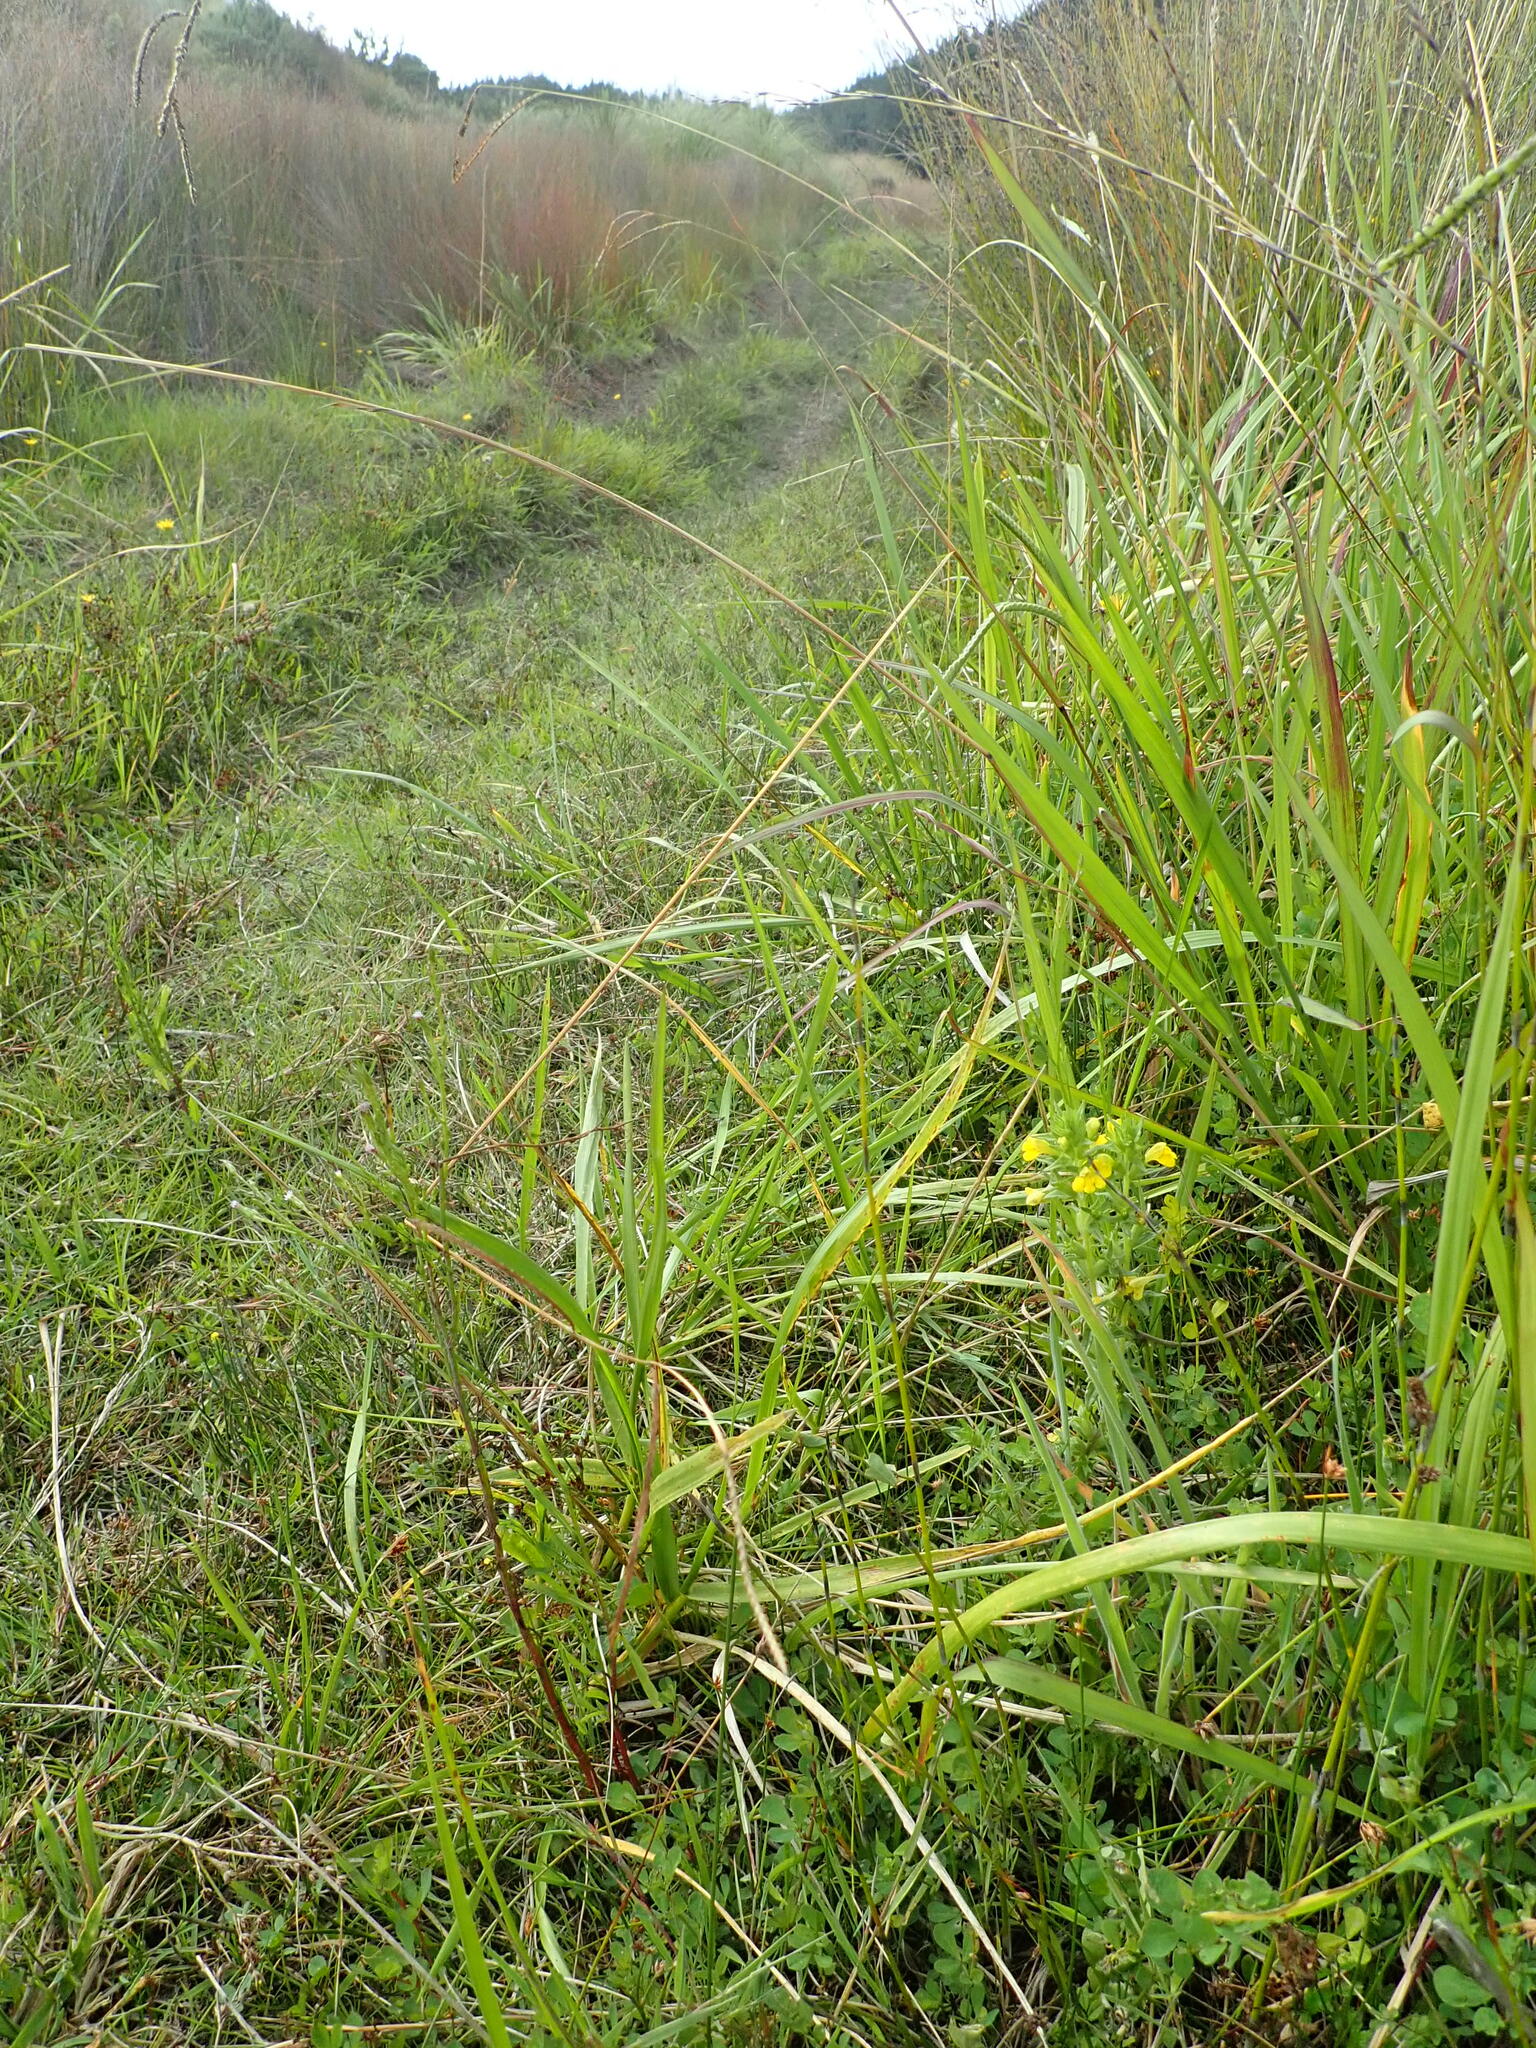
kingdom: Plantae
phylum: Tracheophyta
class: Magnoliopsida
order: Lamiales
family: Orobanchaceae
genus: Bellardia
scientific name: Bellardia viscosa
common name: Sticky parentucellia
